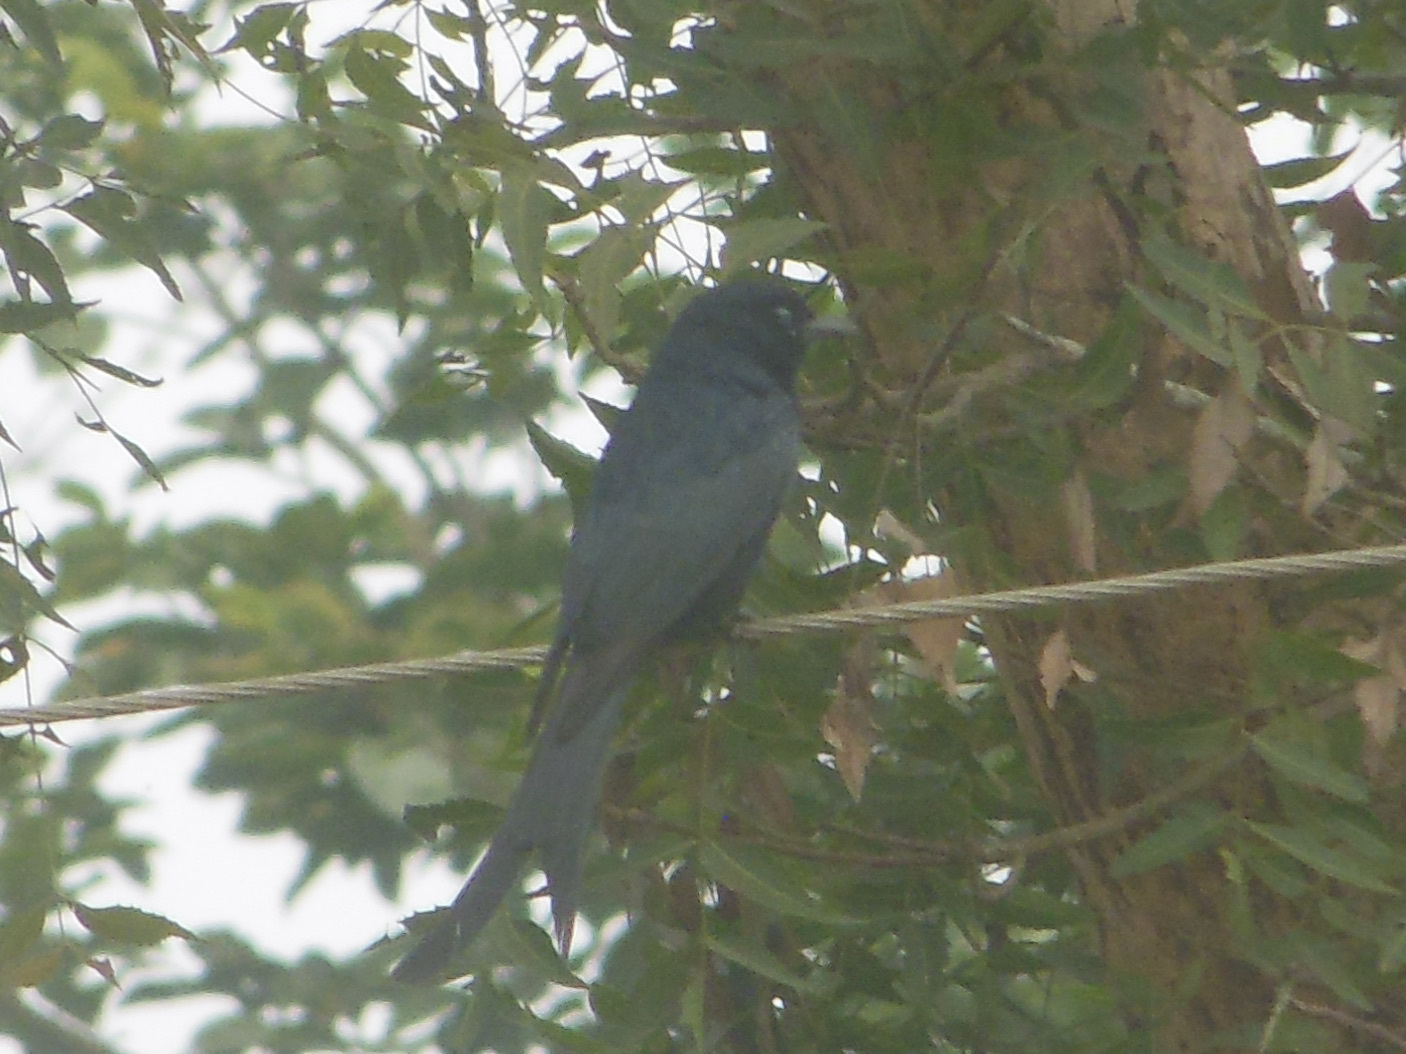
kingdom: Animalia
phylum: Chordata
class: Aves
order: Passeriformes
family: Dicruridae
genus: Dicrurus
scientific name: Dicrurus macrocercus
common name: Black drongo
